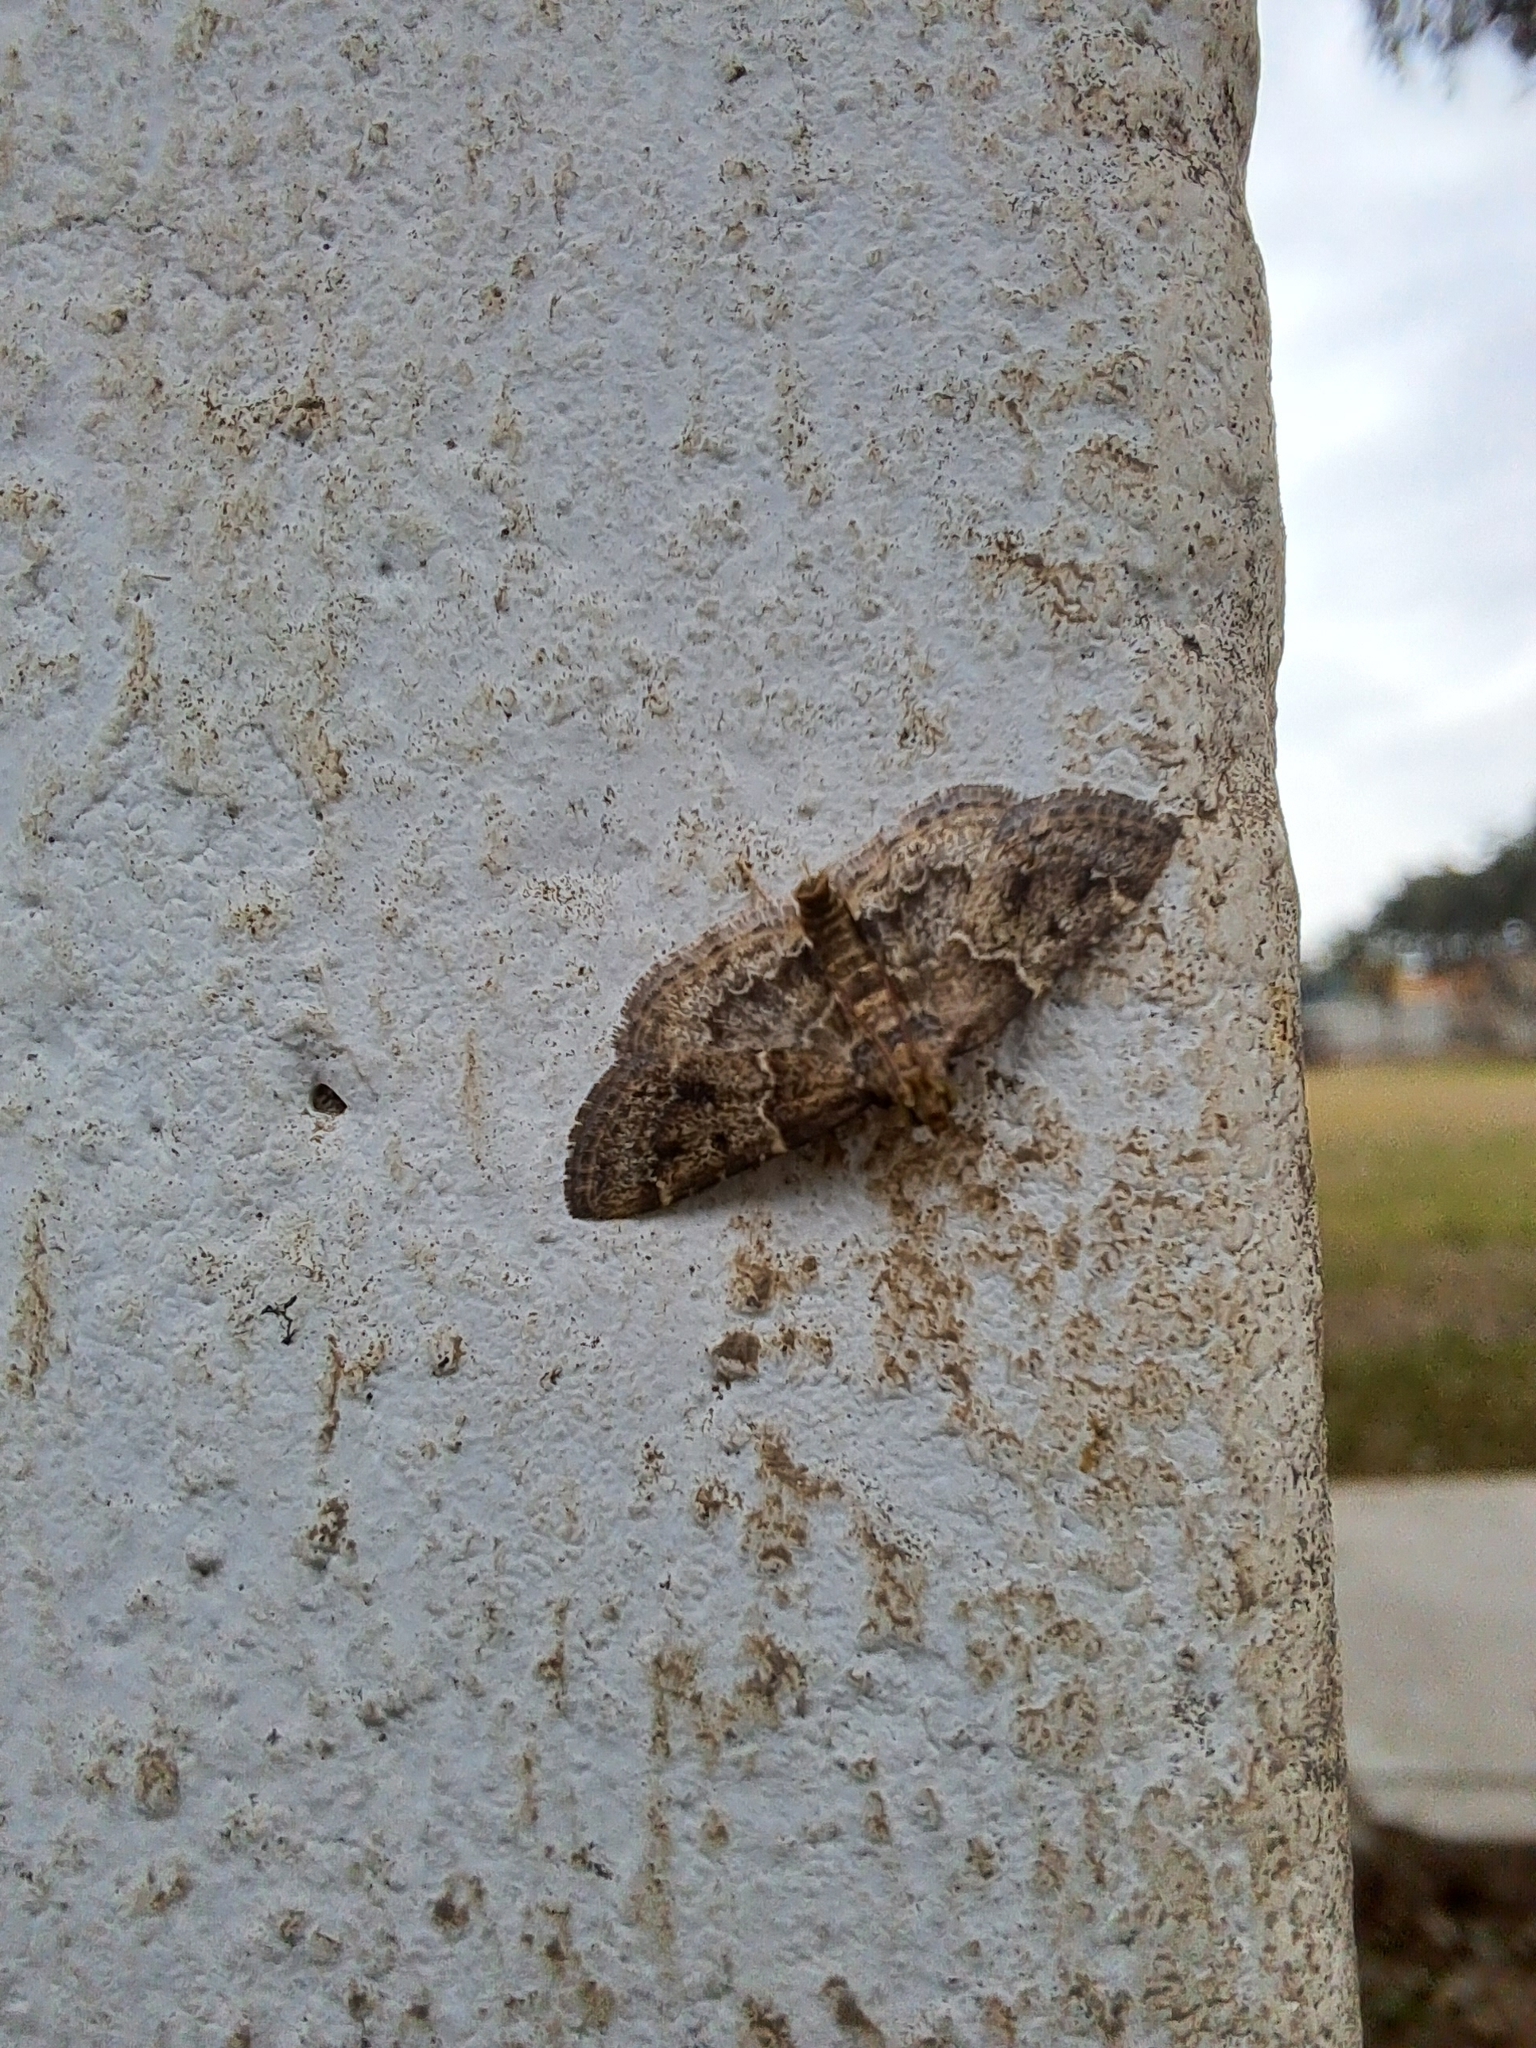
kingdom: Animalia
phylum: Arthropoda
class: Insecta
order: Lepidoptera
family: Geometridae
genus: Disclisioprocta
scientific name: Disclisioprocta stellata
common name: Somber carpet
